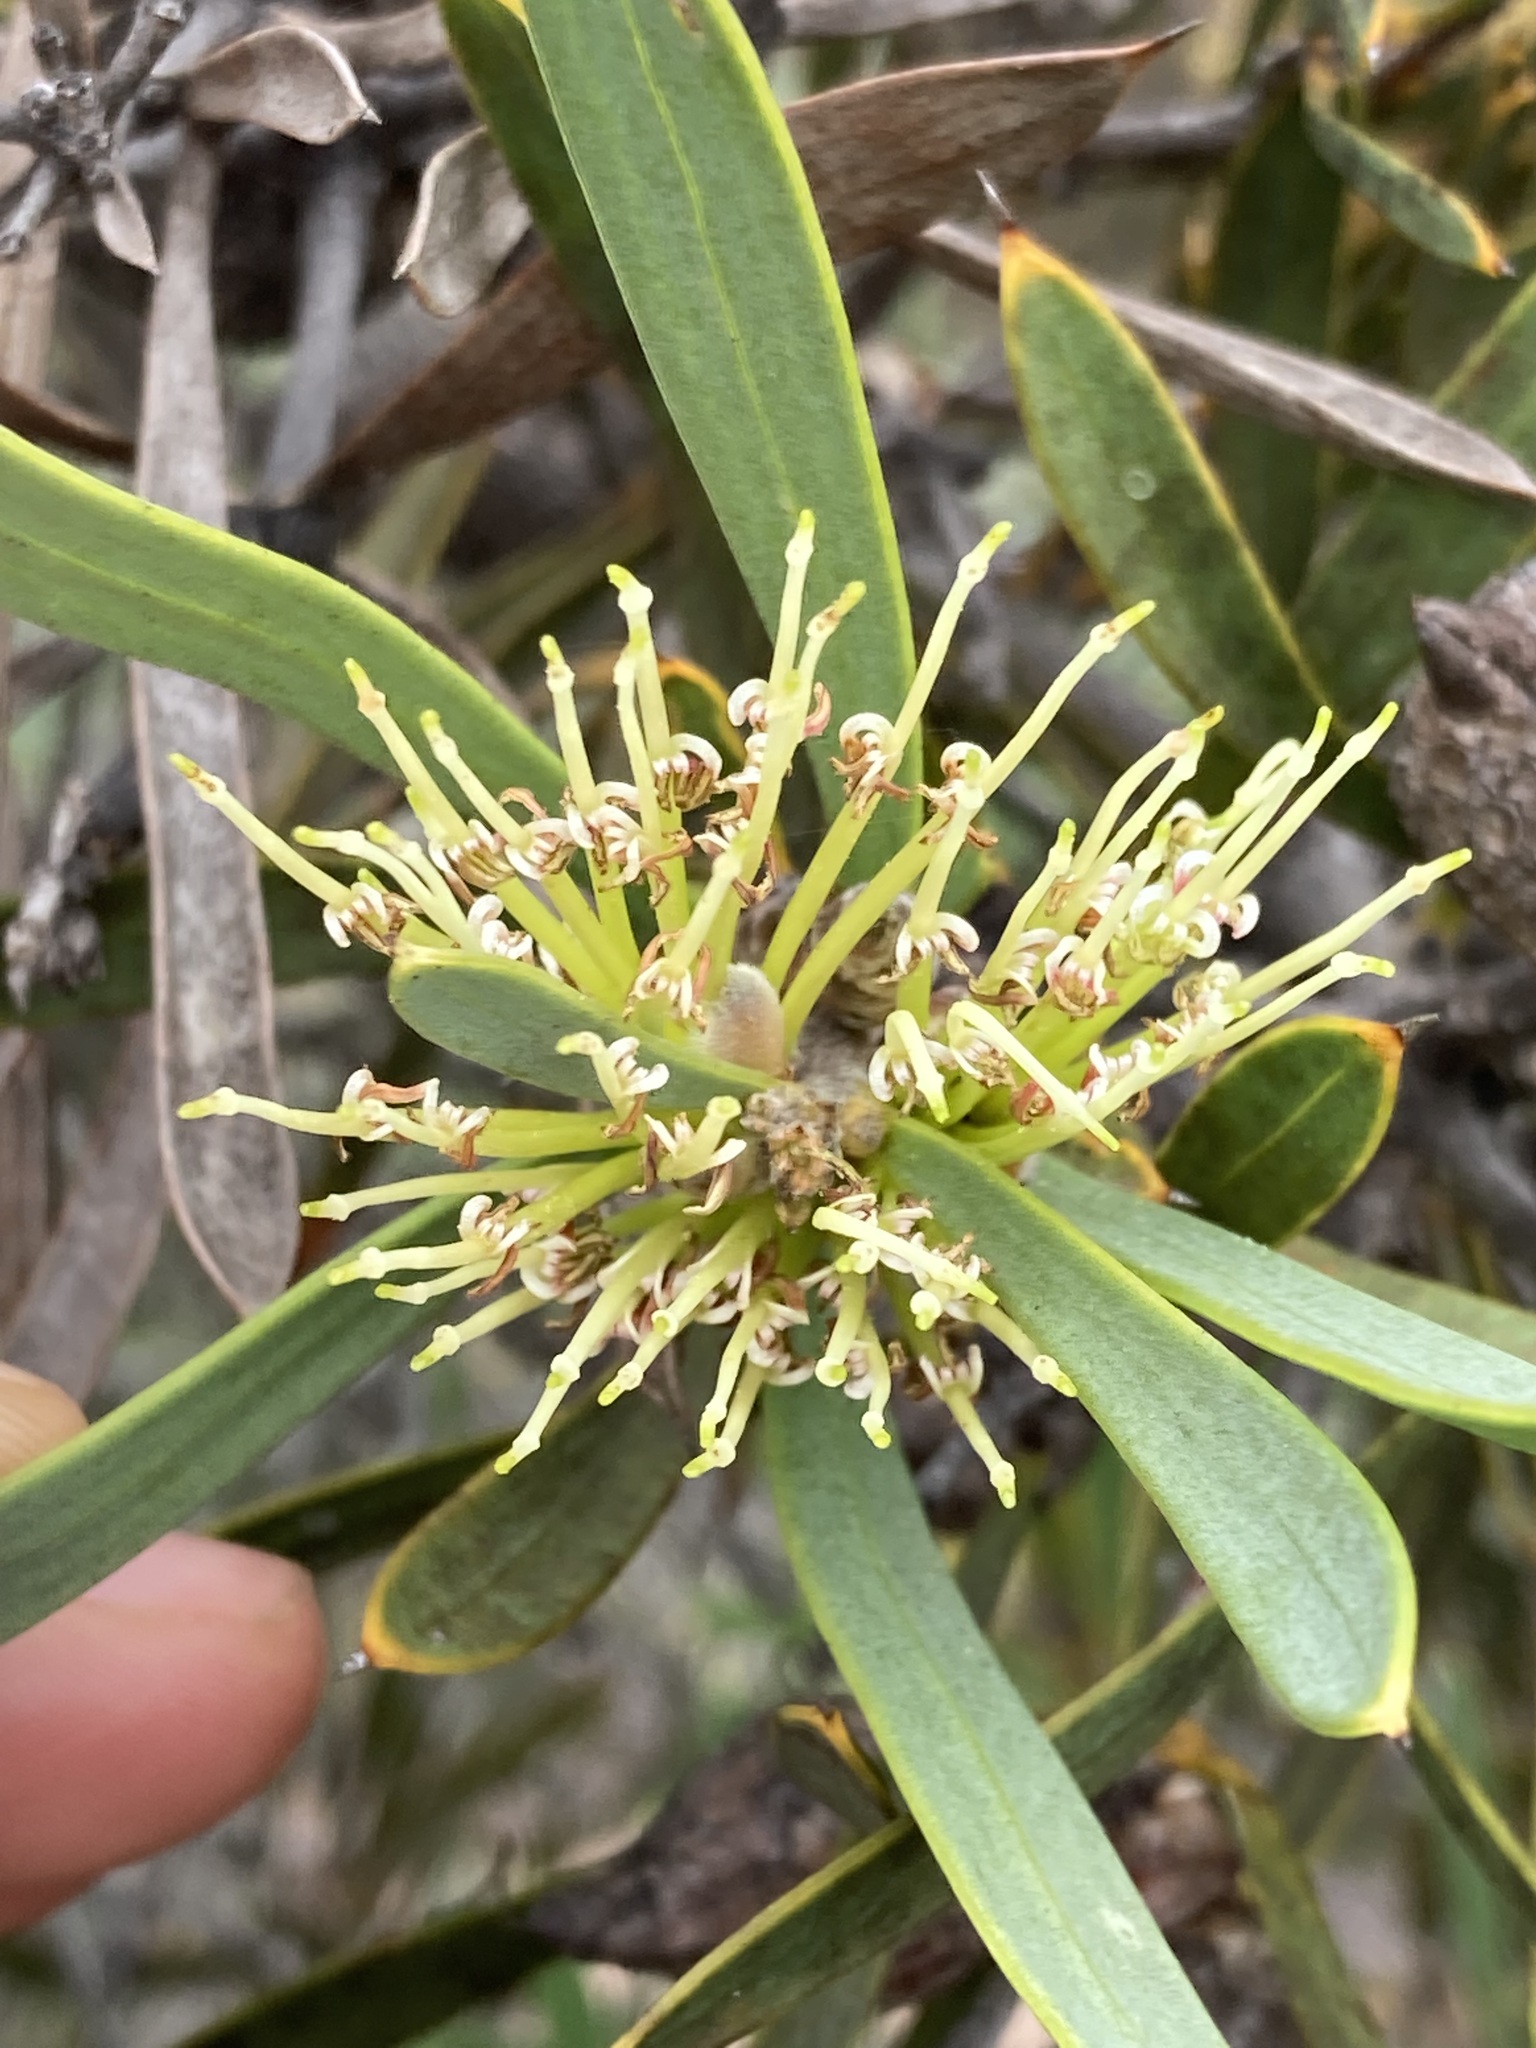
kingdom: Plantae
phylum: Tracheophyta
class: Magnoliopsida
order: Proteales
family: Proteaceae
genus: Hakea
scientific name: Hakea corymbosa
